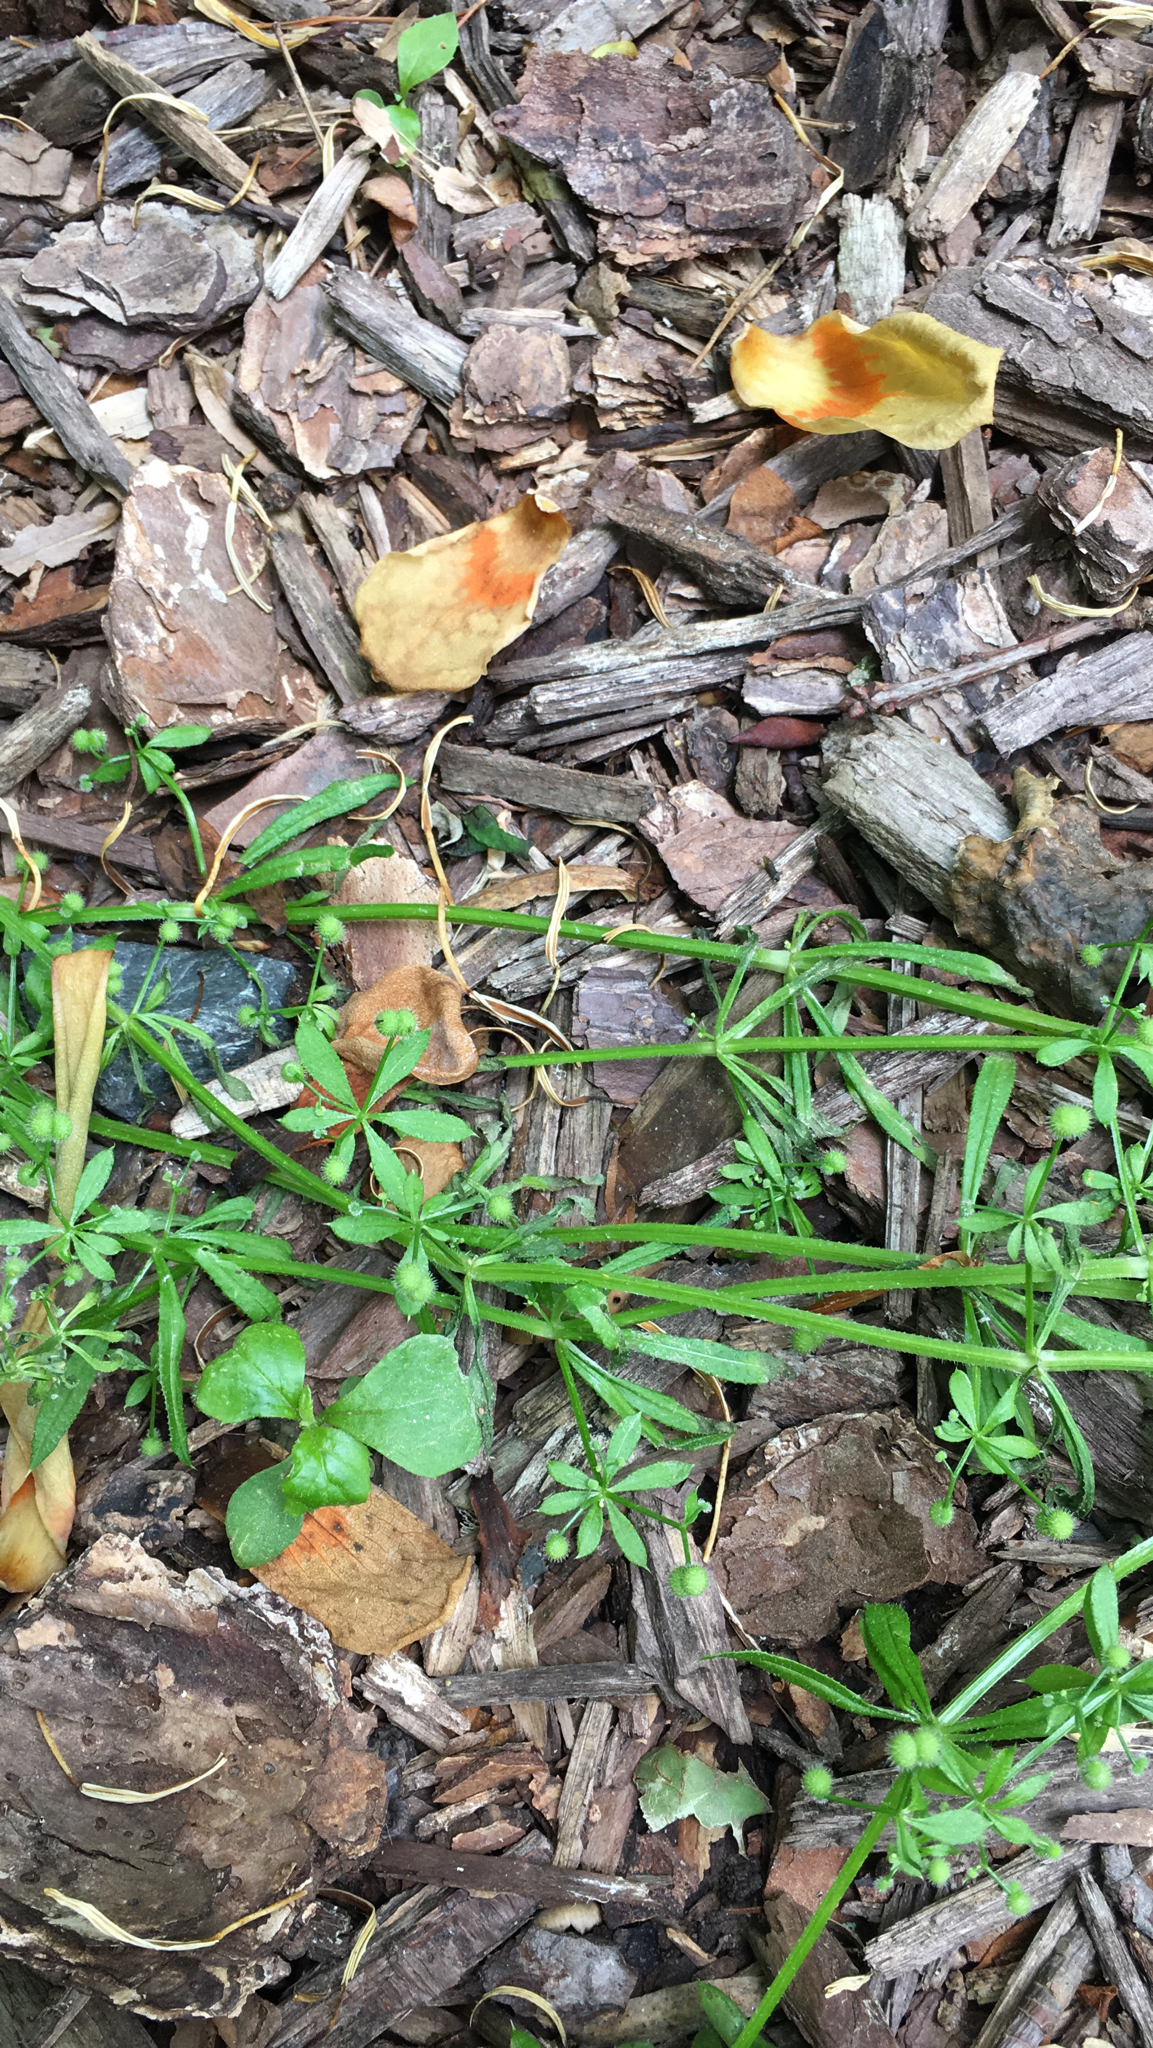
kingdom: Plantae
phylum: Tracheophyta
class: Magnoliopsida
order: Gentianales
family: Rubiaceae
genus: Galium
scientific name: Galium aparine
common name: Cleavers
